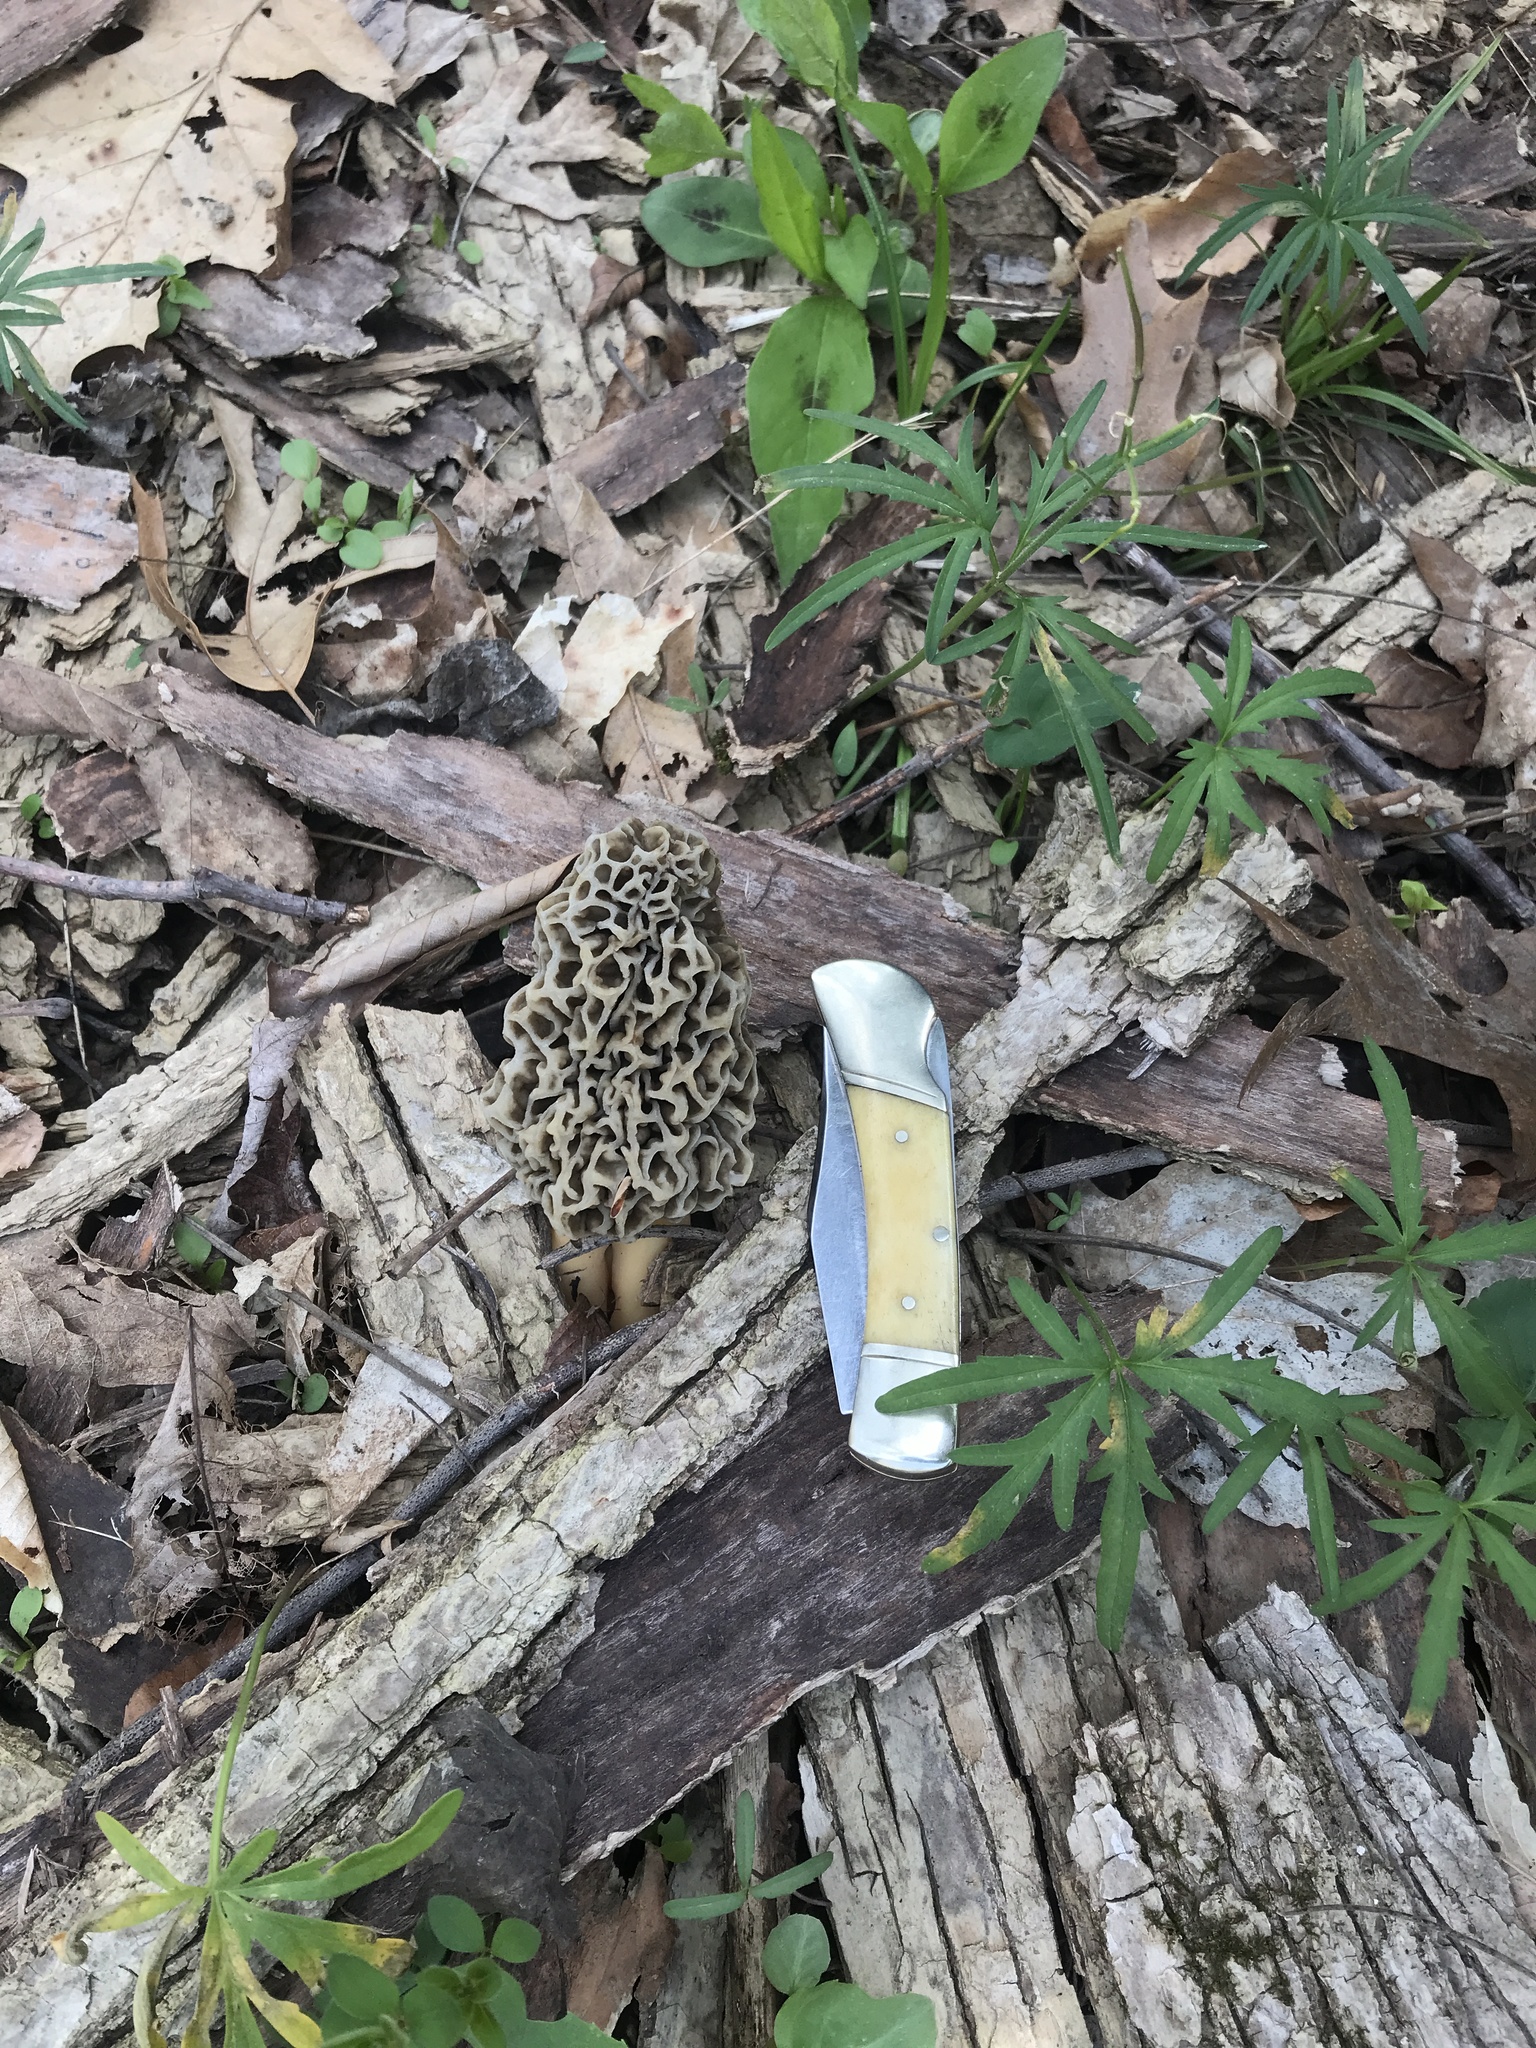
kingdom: Fungi
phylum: Ascomycota
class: Pezizomycetes
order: Pezizales
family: Morchellaceae
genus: Morchella
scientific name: Morchella americana
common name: White morel
